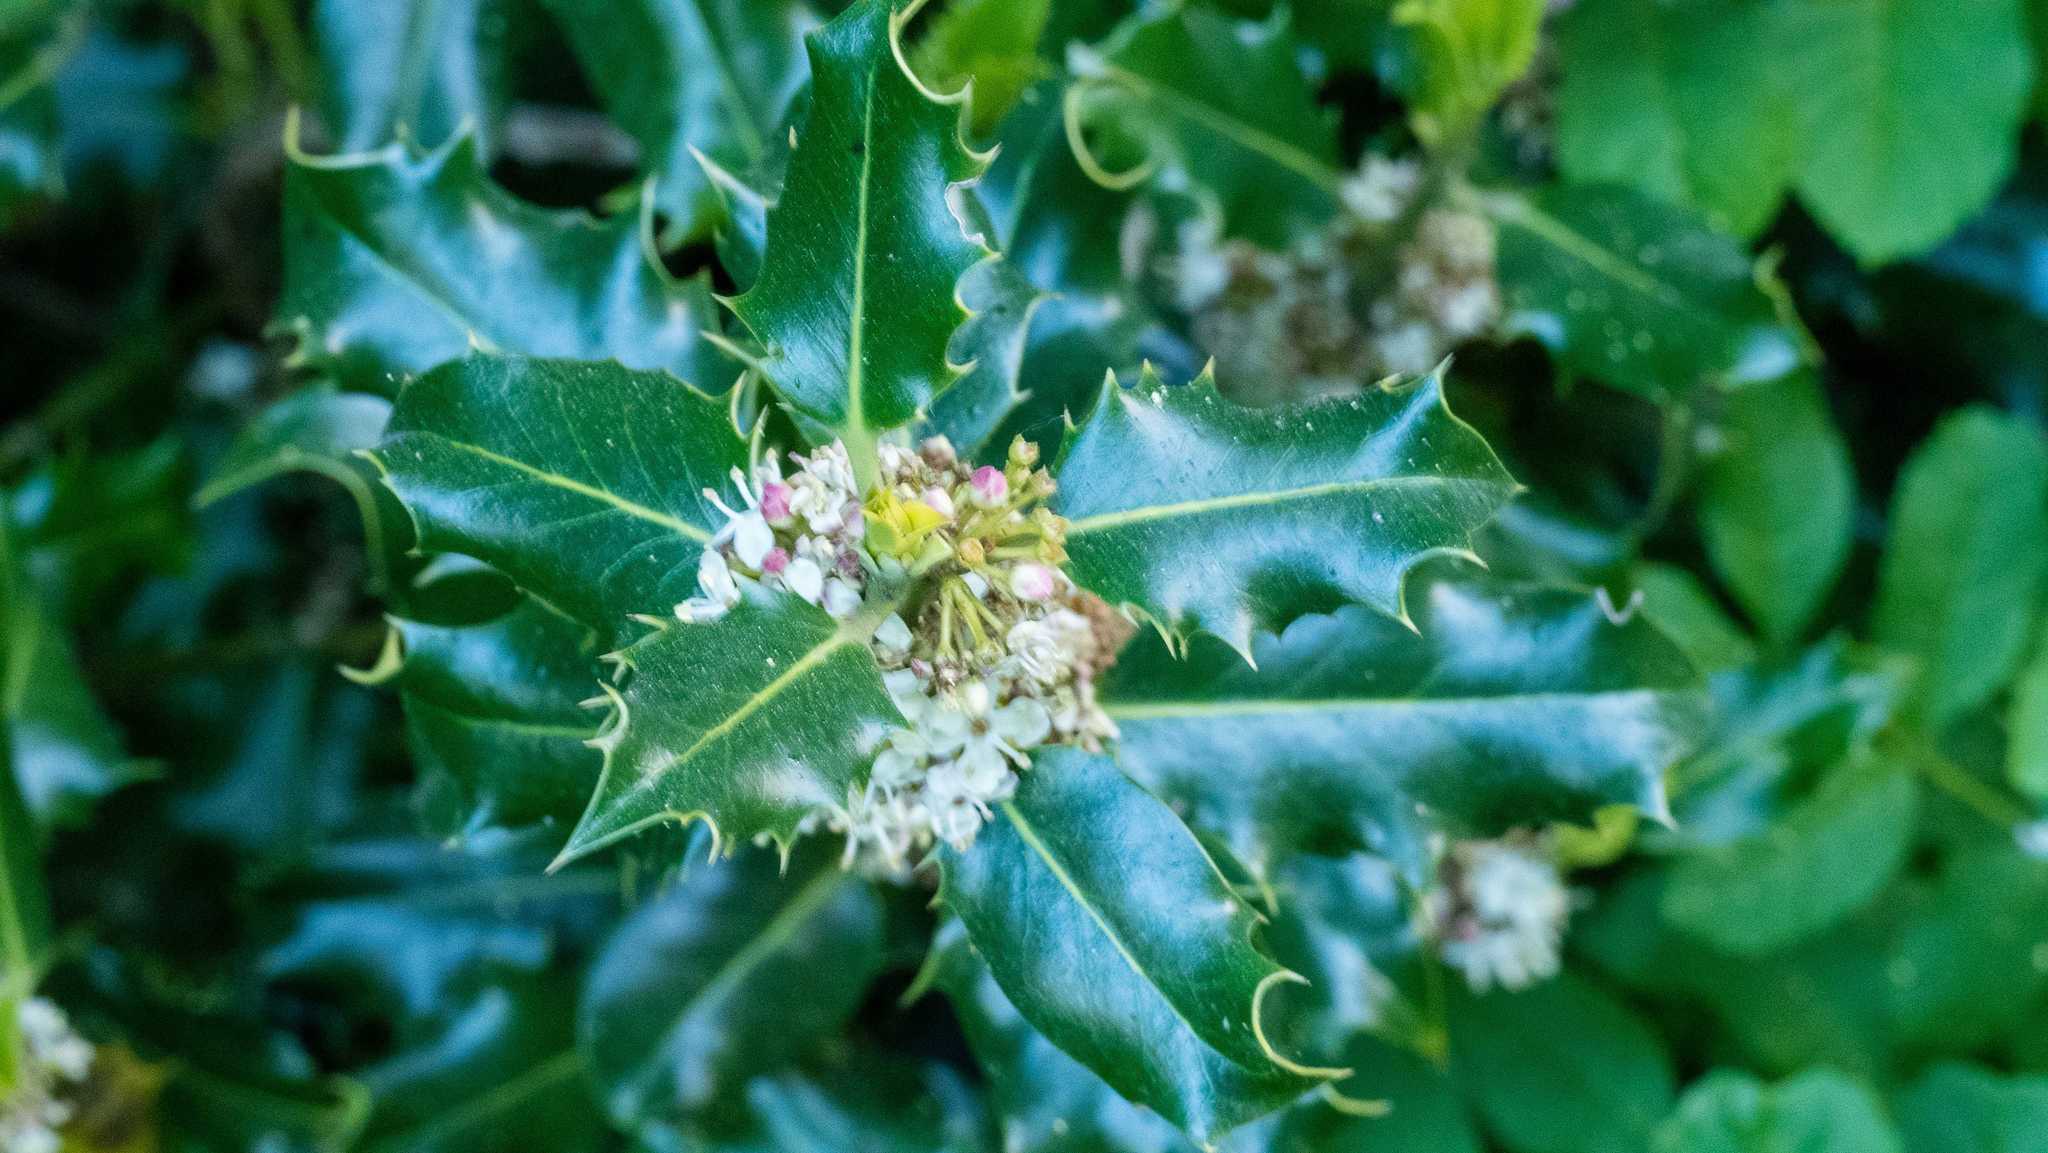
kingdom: Plantae
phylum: Tracheophyta
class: Magnoliopsida
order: Aquifoliales
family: Aquifoliaceae
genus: Ilex
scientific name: Ilex aquifolium
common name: English holly
